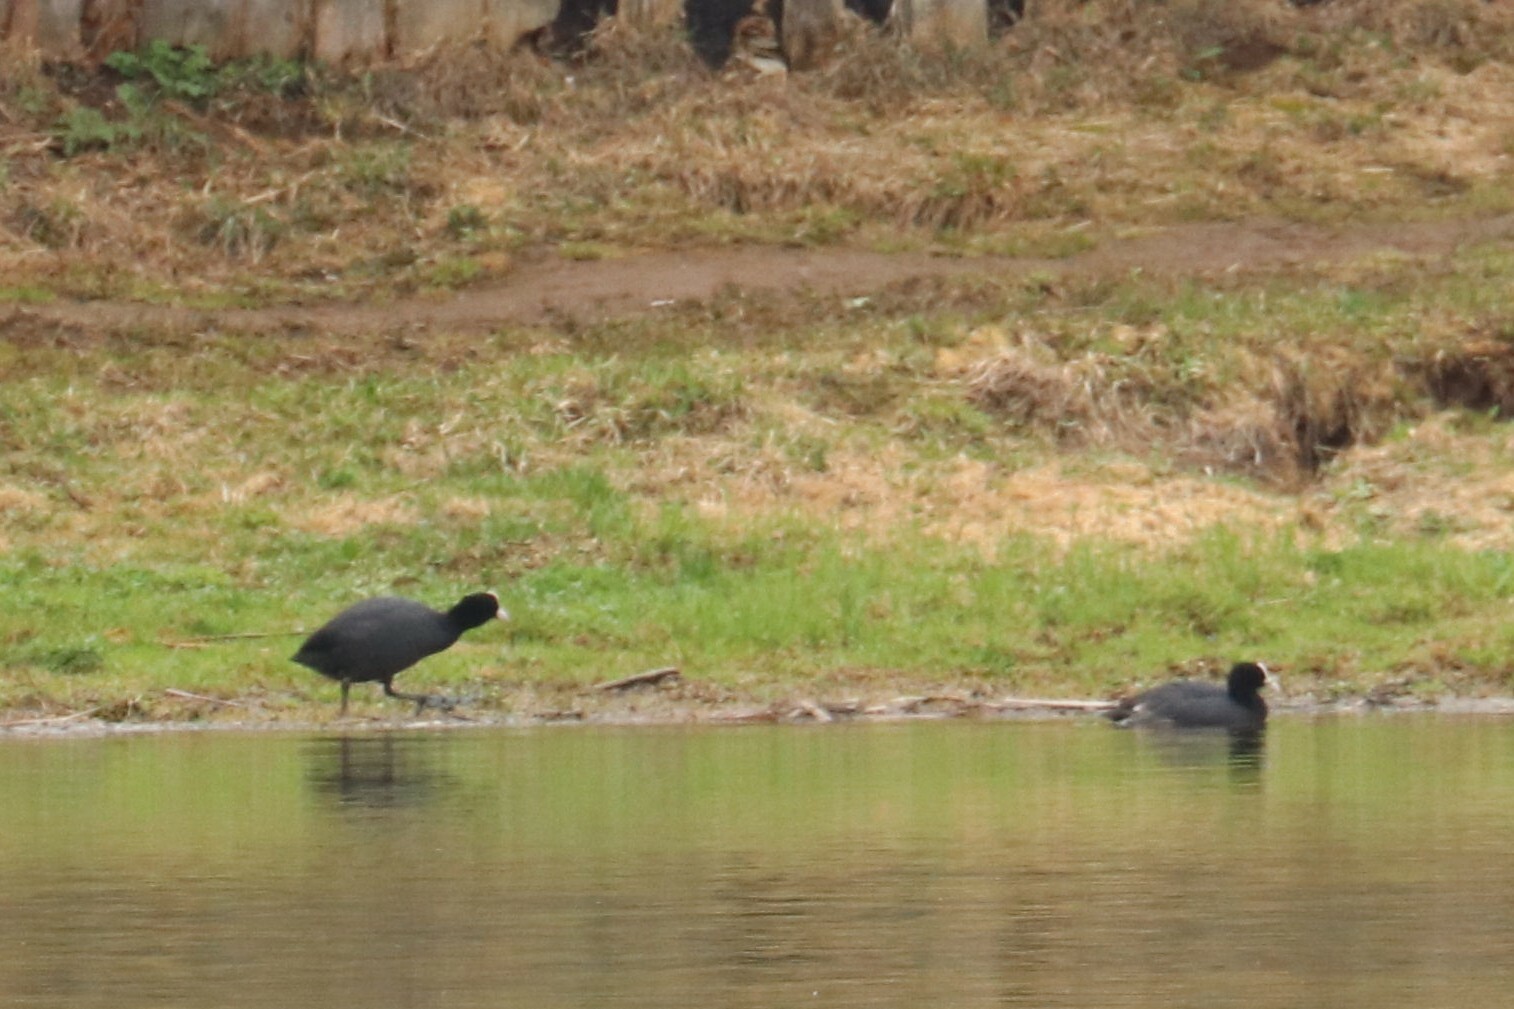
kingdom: Animalia
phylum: Chordata
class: Aves
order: Gruiformes
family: Rallidae
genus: Fulica
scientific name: Fulica atra
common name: Eurasian coot
